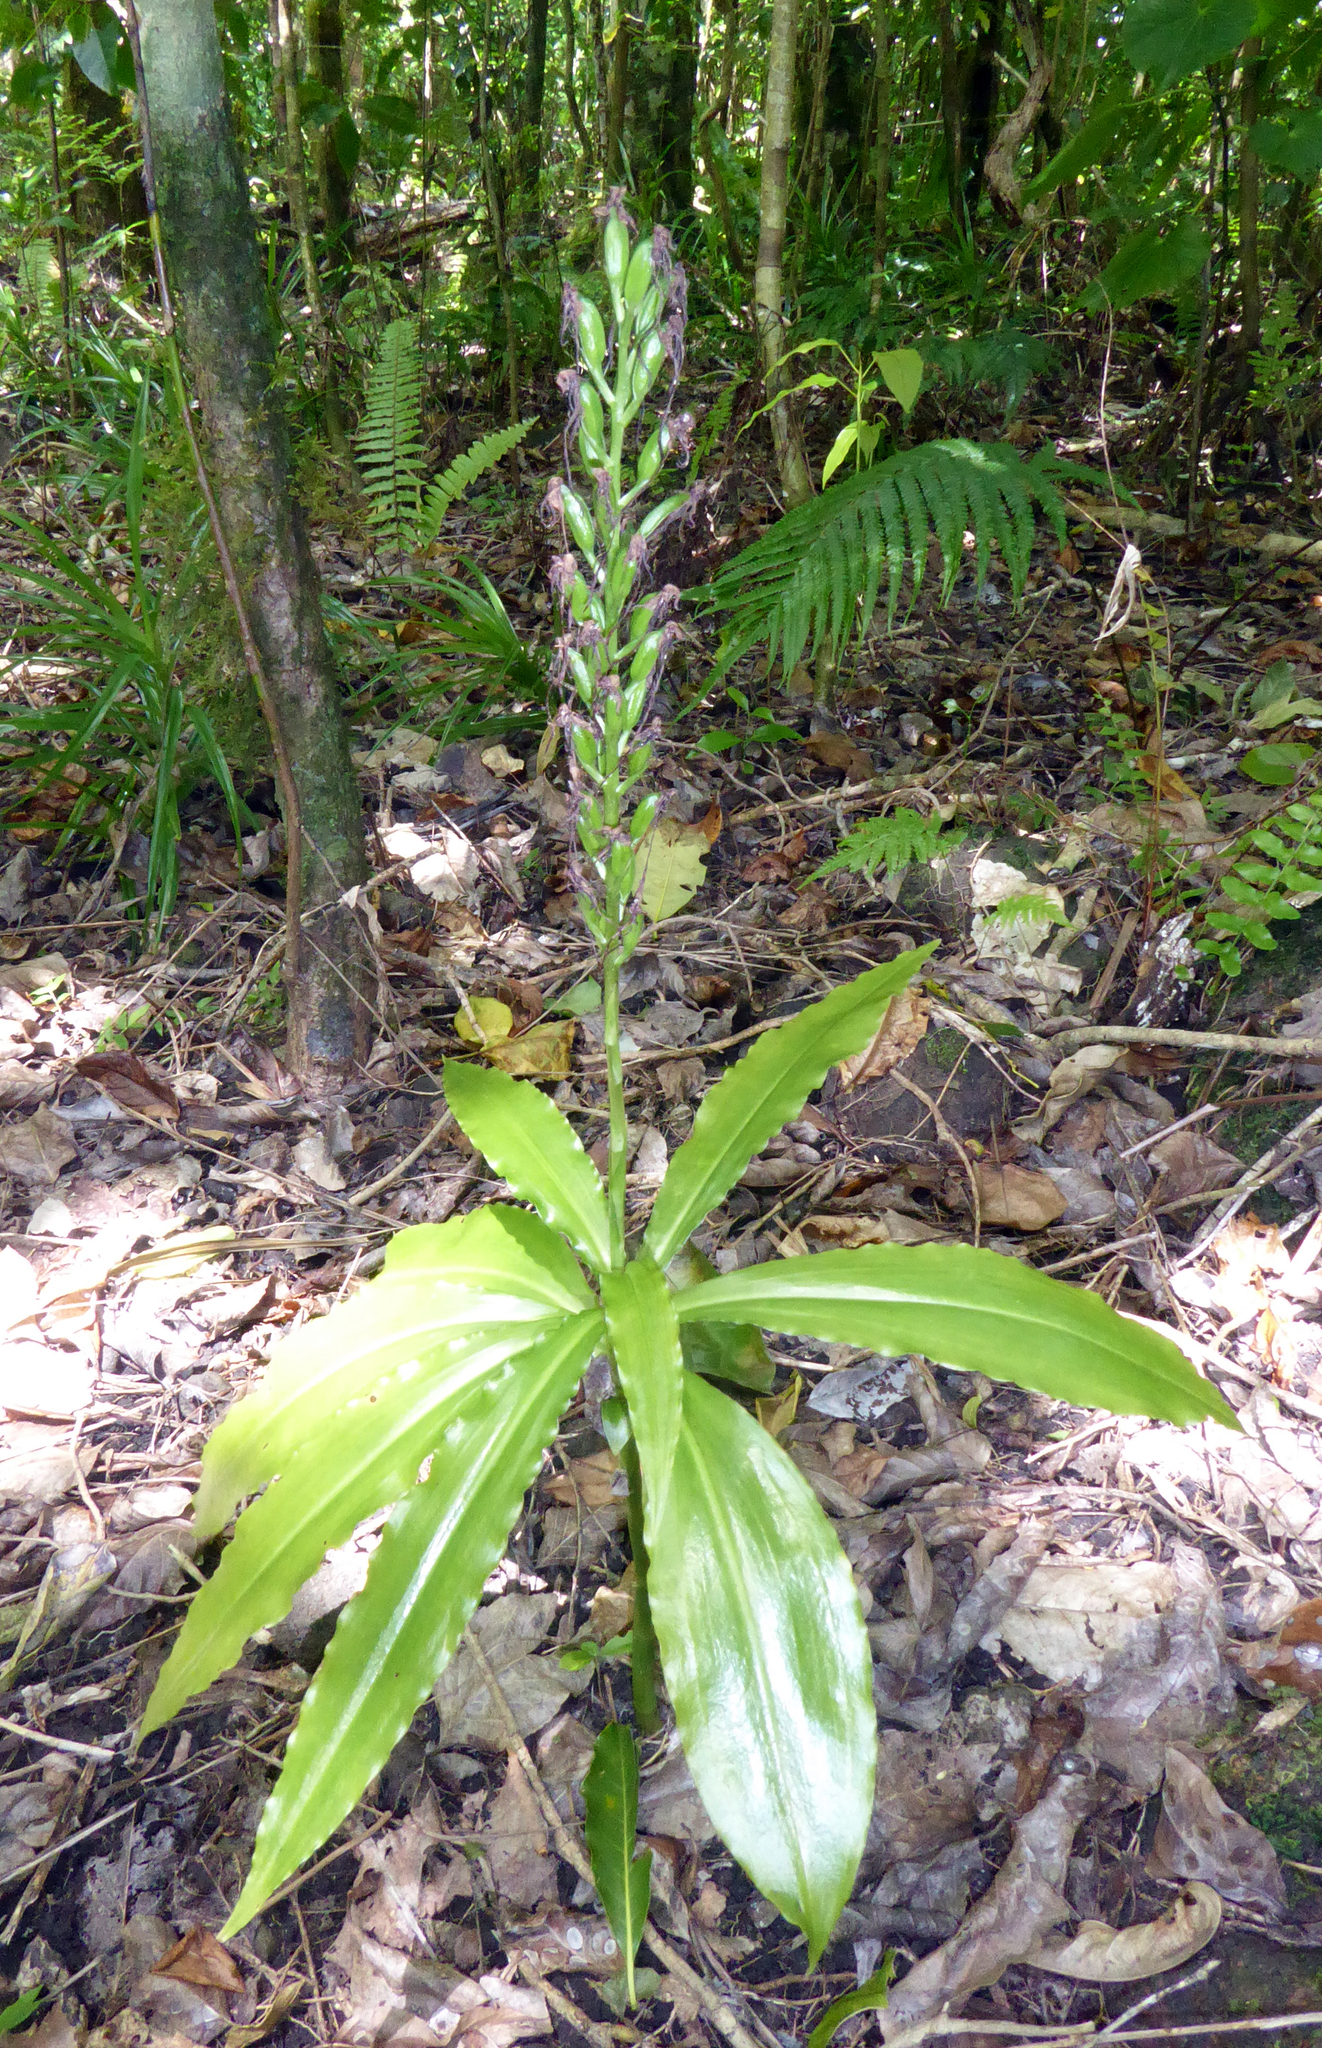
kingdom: Plantae
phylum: Tracheophyta
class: Liliopsida
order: Asparagales
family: Orchidaceae
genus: Habenaria
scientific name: Habenaria amplifolia
